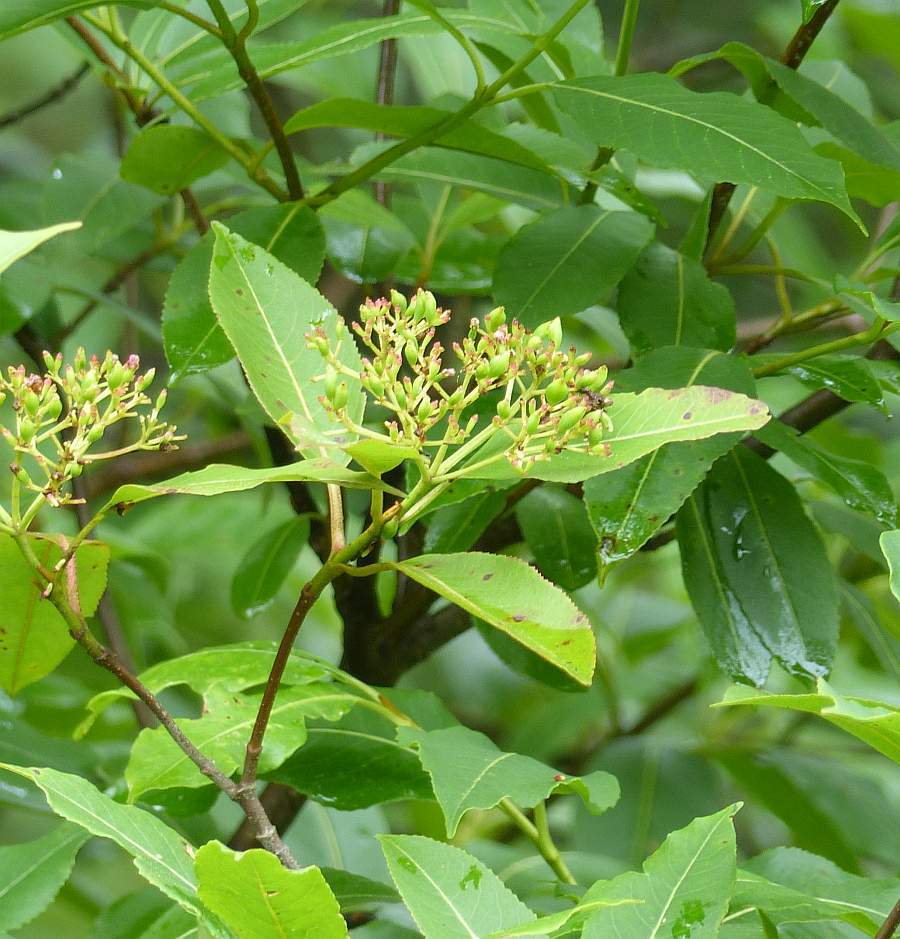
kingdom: Plantae
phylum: Tracheophyta
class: Magnoliopsida
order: Dipsacales
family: Viburnaceae
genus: Viburnum
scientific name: Viburnum cassinoides
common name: Swamp haw
